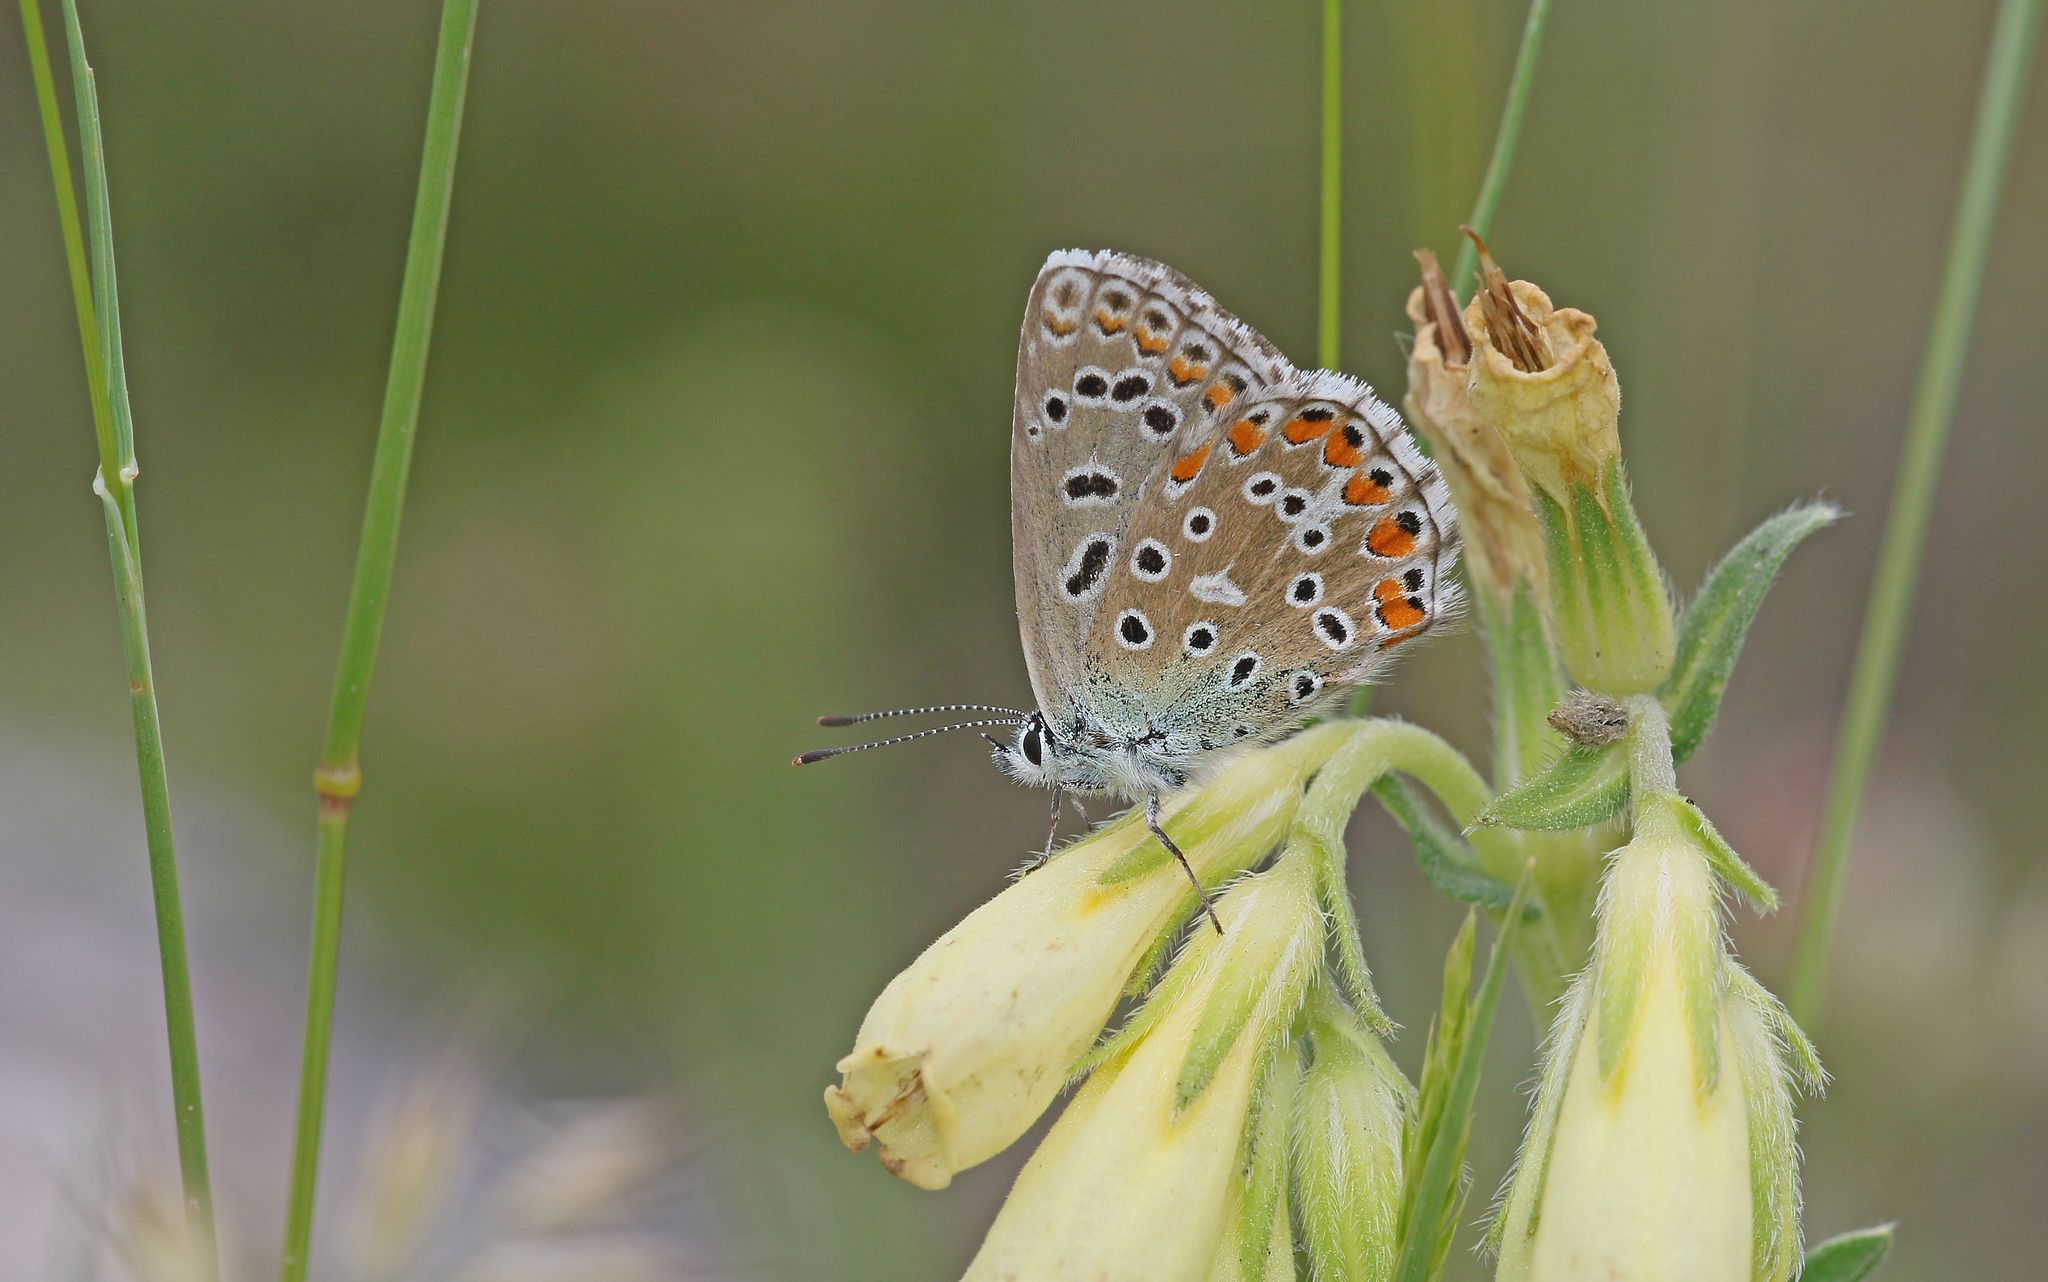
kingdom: Animalia
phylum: Arthropoda
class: Insecta
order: Lepidoptera
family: Lycaenidae
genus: Lysandra
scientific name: Lysandra bellargus
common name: Adonis blue
